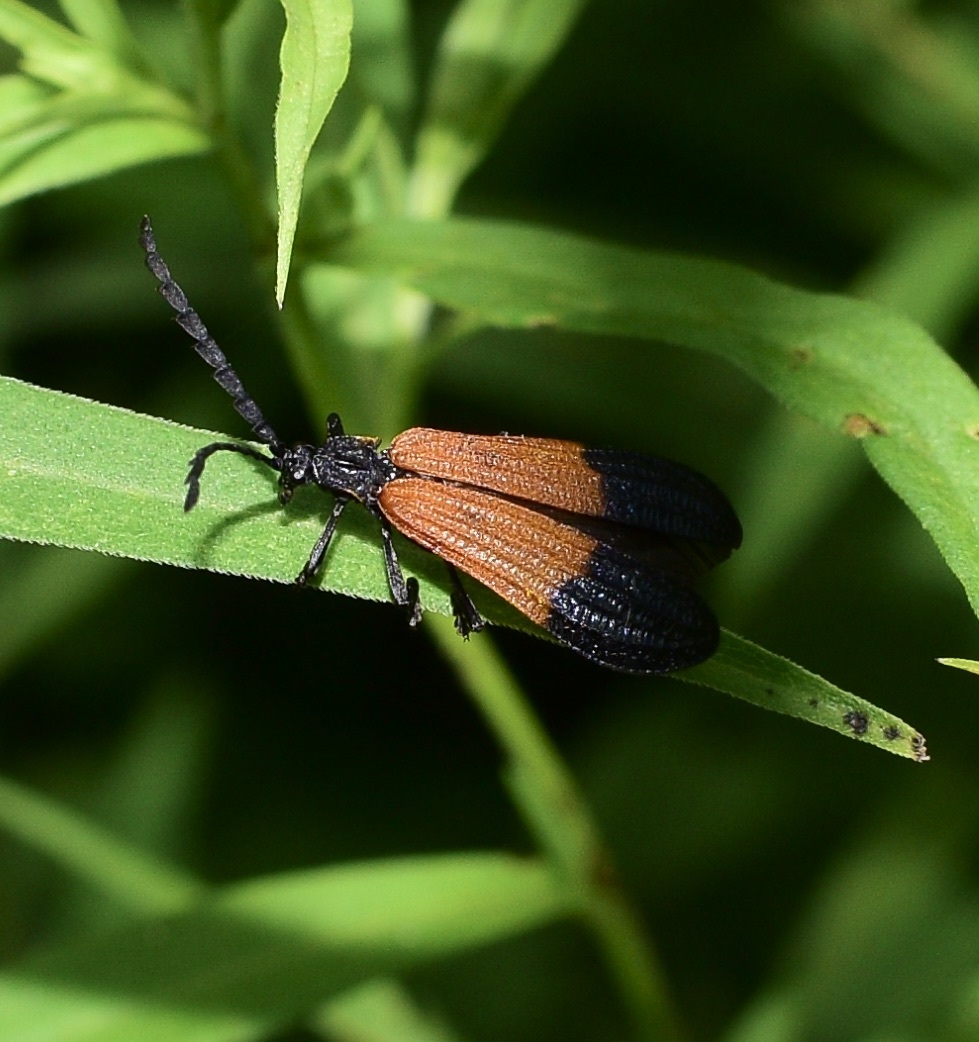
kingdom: Animalia
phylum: Arthropoda
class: Insecta
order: Coleoptera
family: Lycidae
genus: Calopteron
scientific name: Calopteron terminale
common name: End band net-winged beetle
